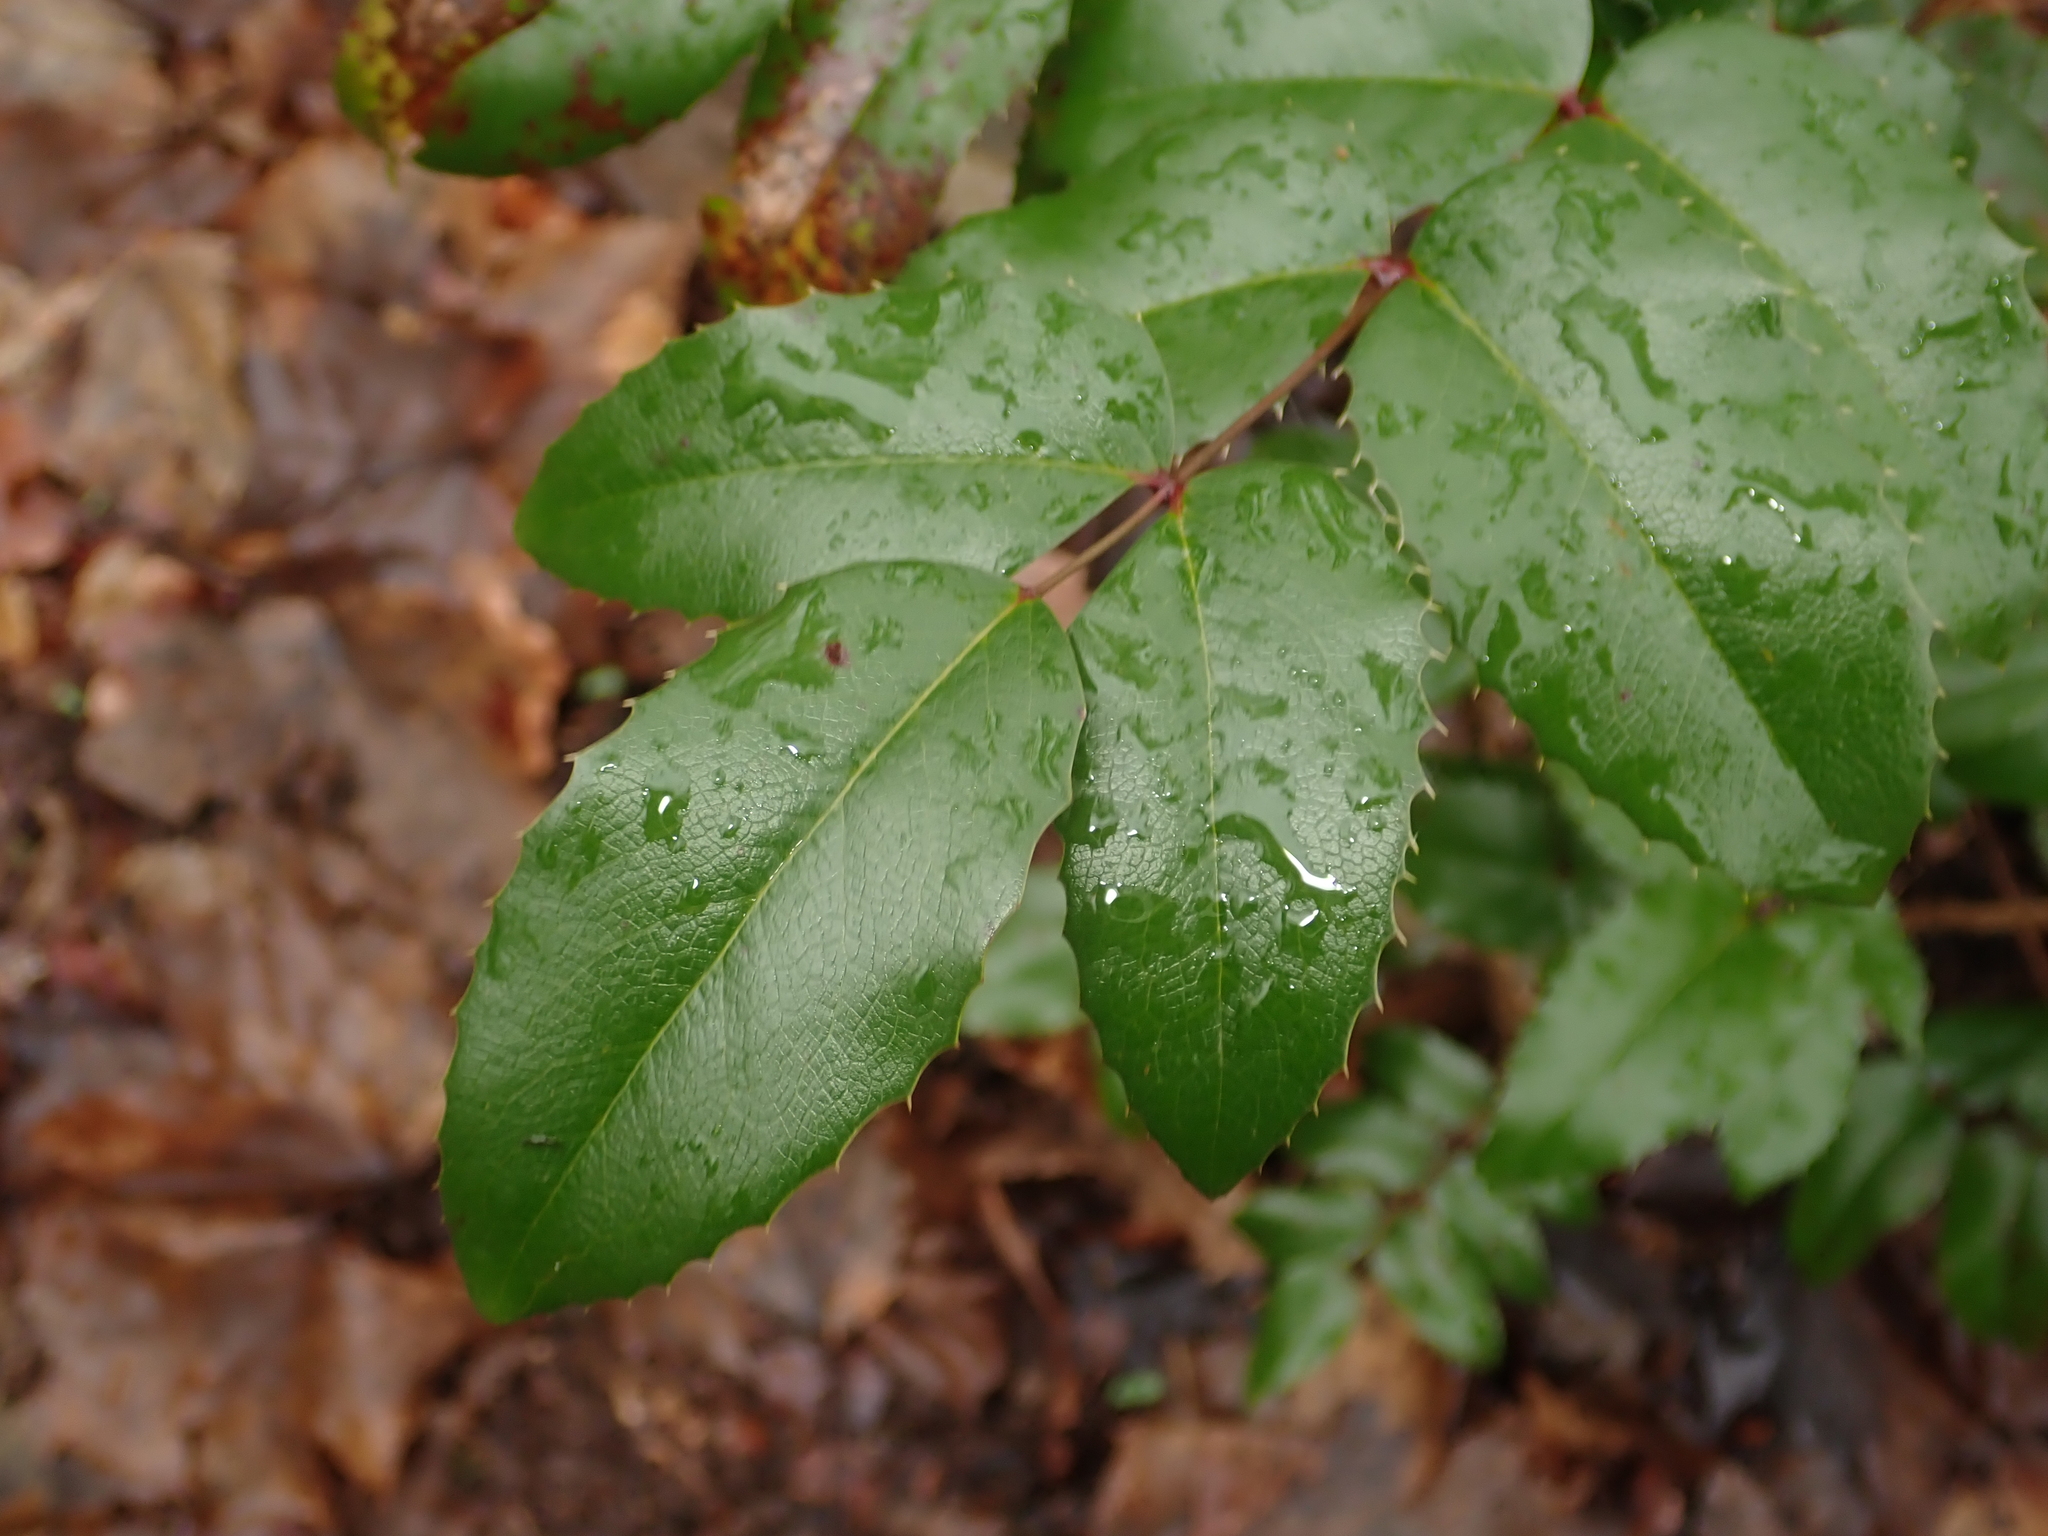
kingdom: Plantae
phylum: Tracheophyta
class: Magnoliopsida
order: Ranunculales
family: Berberidaceae
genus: Mahonia
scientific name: Mahonia aquifolium
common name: Oregon-grape
